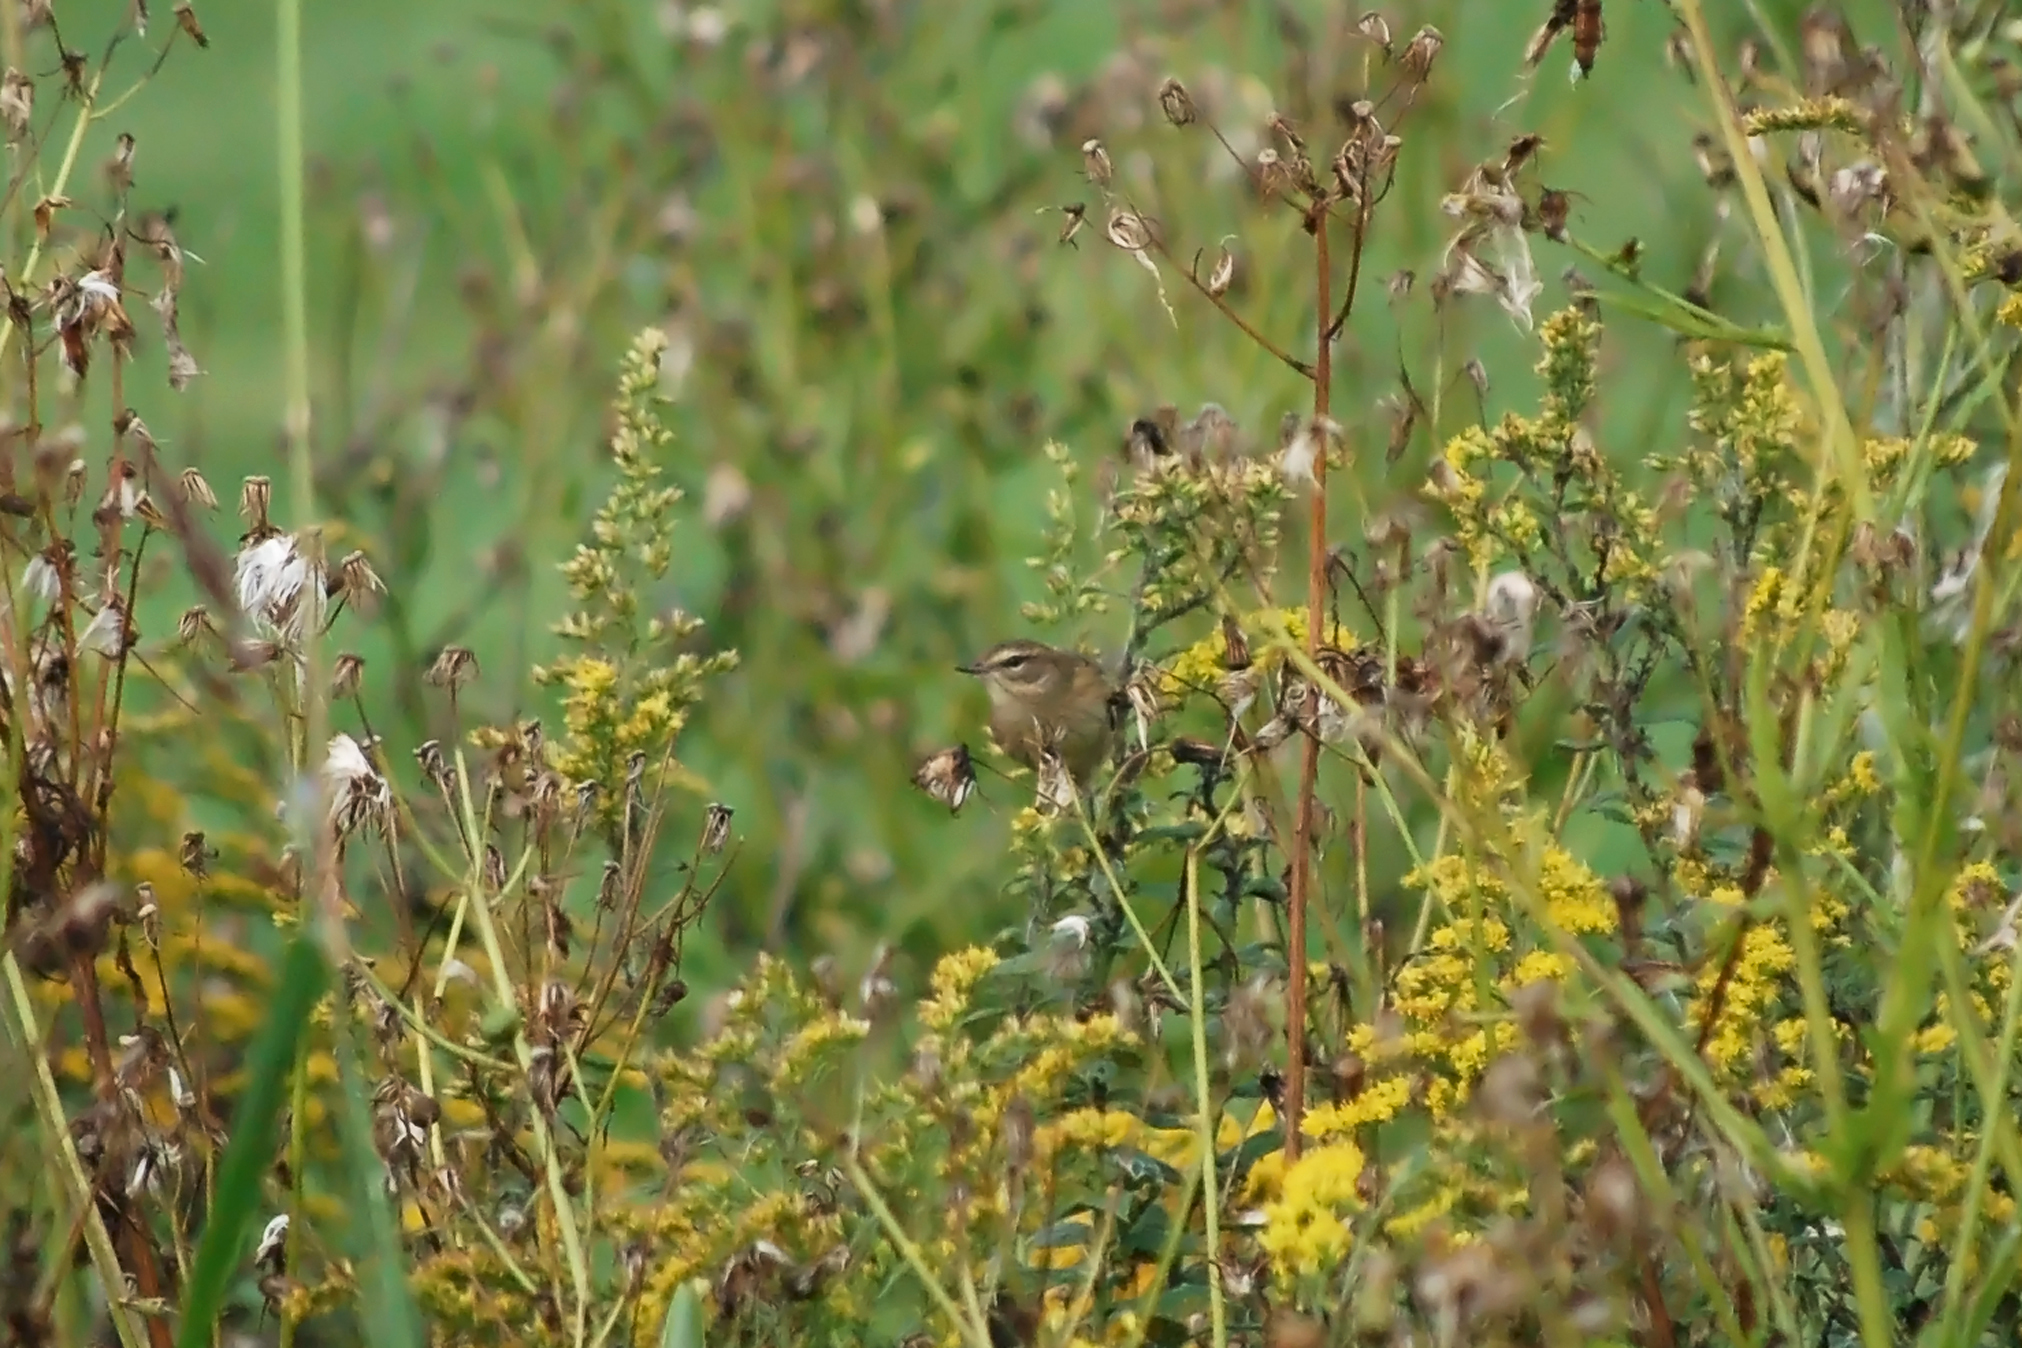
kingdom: Animalia
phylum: Chordata
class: Aves
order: Passeriformes
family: Parulidae
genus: Setophaga
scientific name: Setophaga palmarum
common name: Palm warbler
